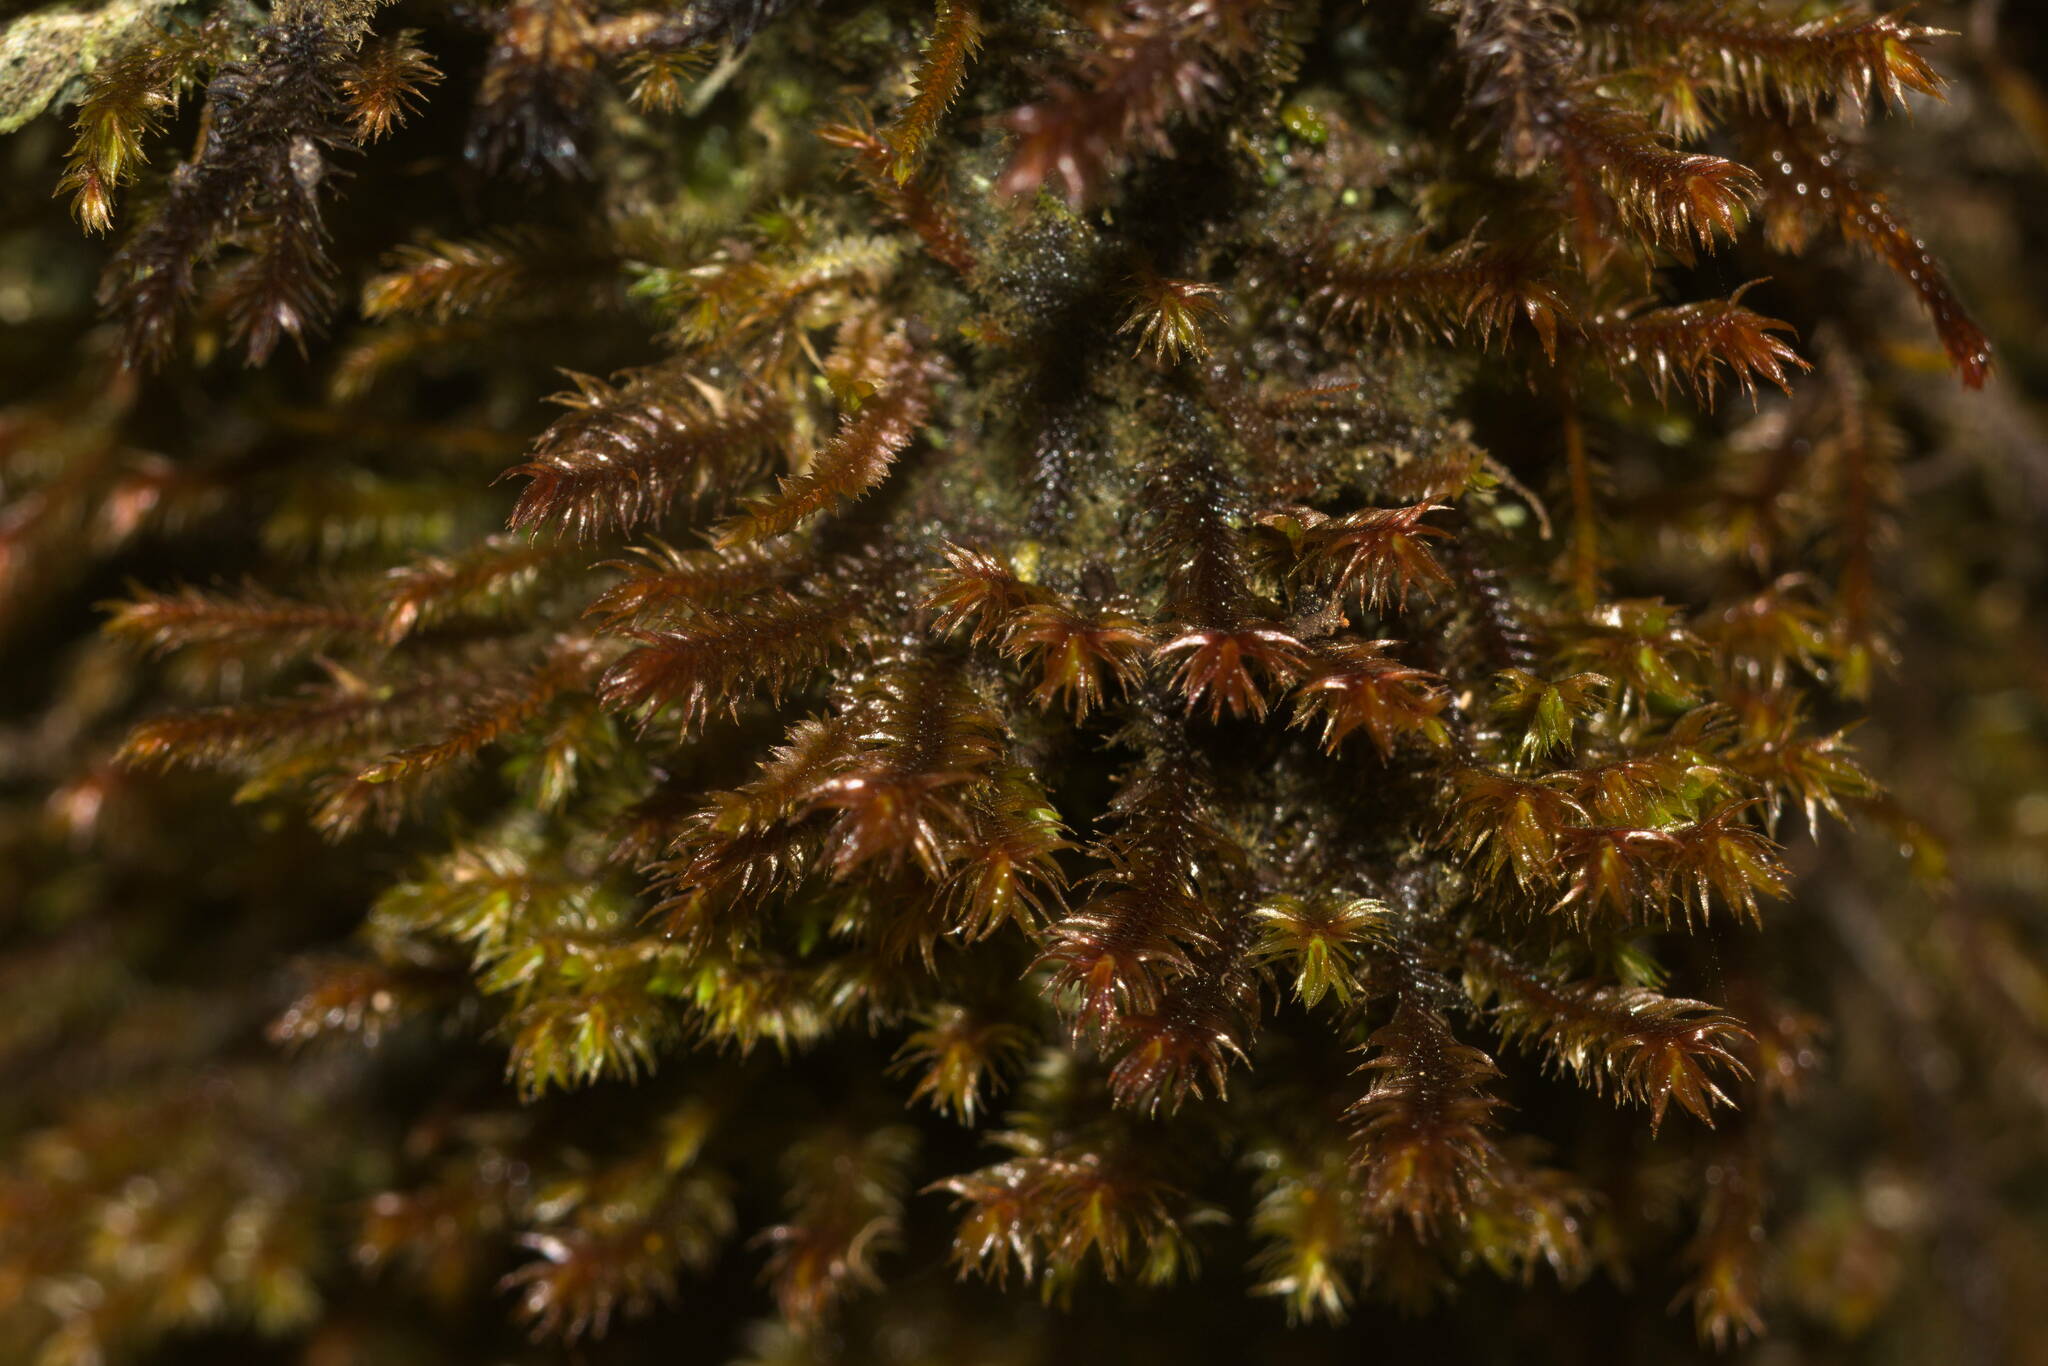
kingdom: Plantae
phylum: Marchantiophyta
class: Jungermanniopsida
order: Jungermanniales
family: Herbertaceae
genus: Herbertus
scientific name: Herbertus aduncus
